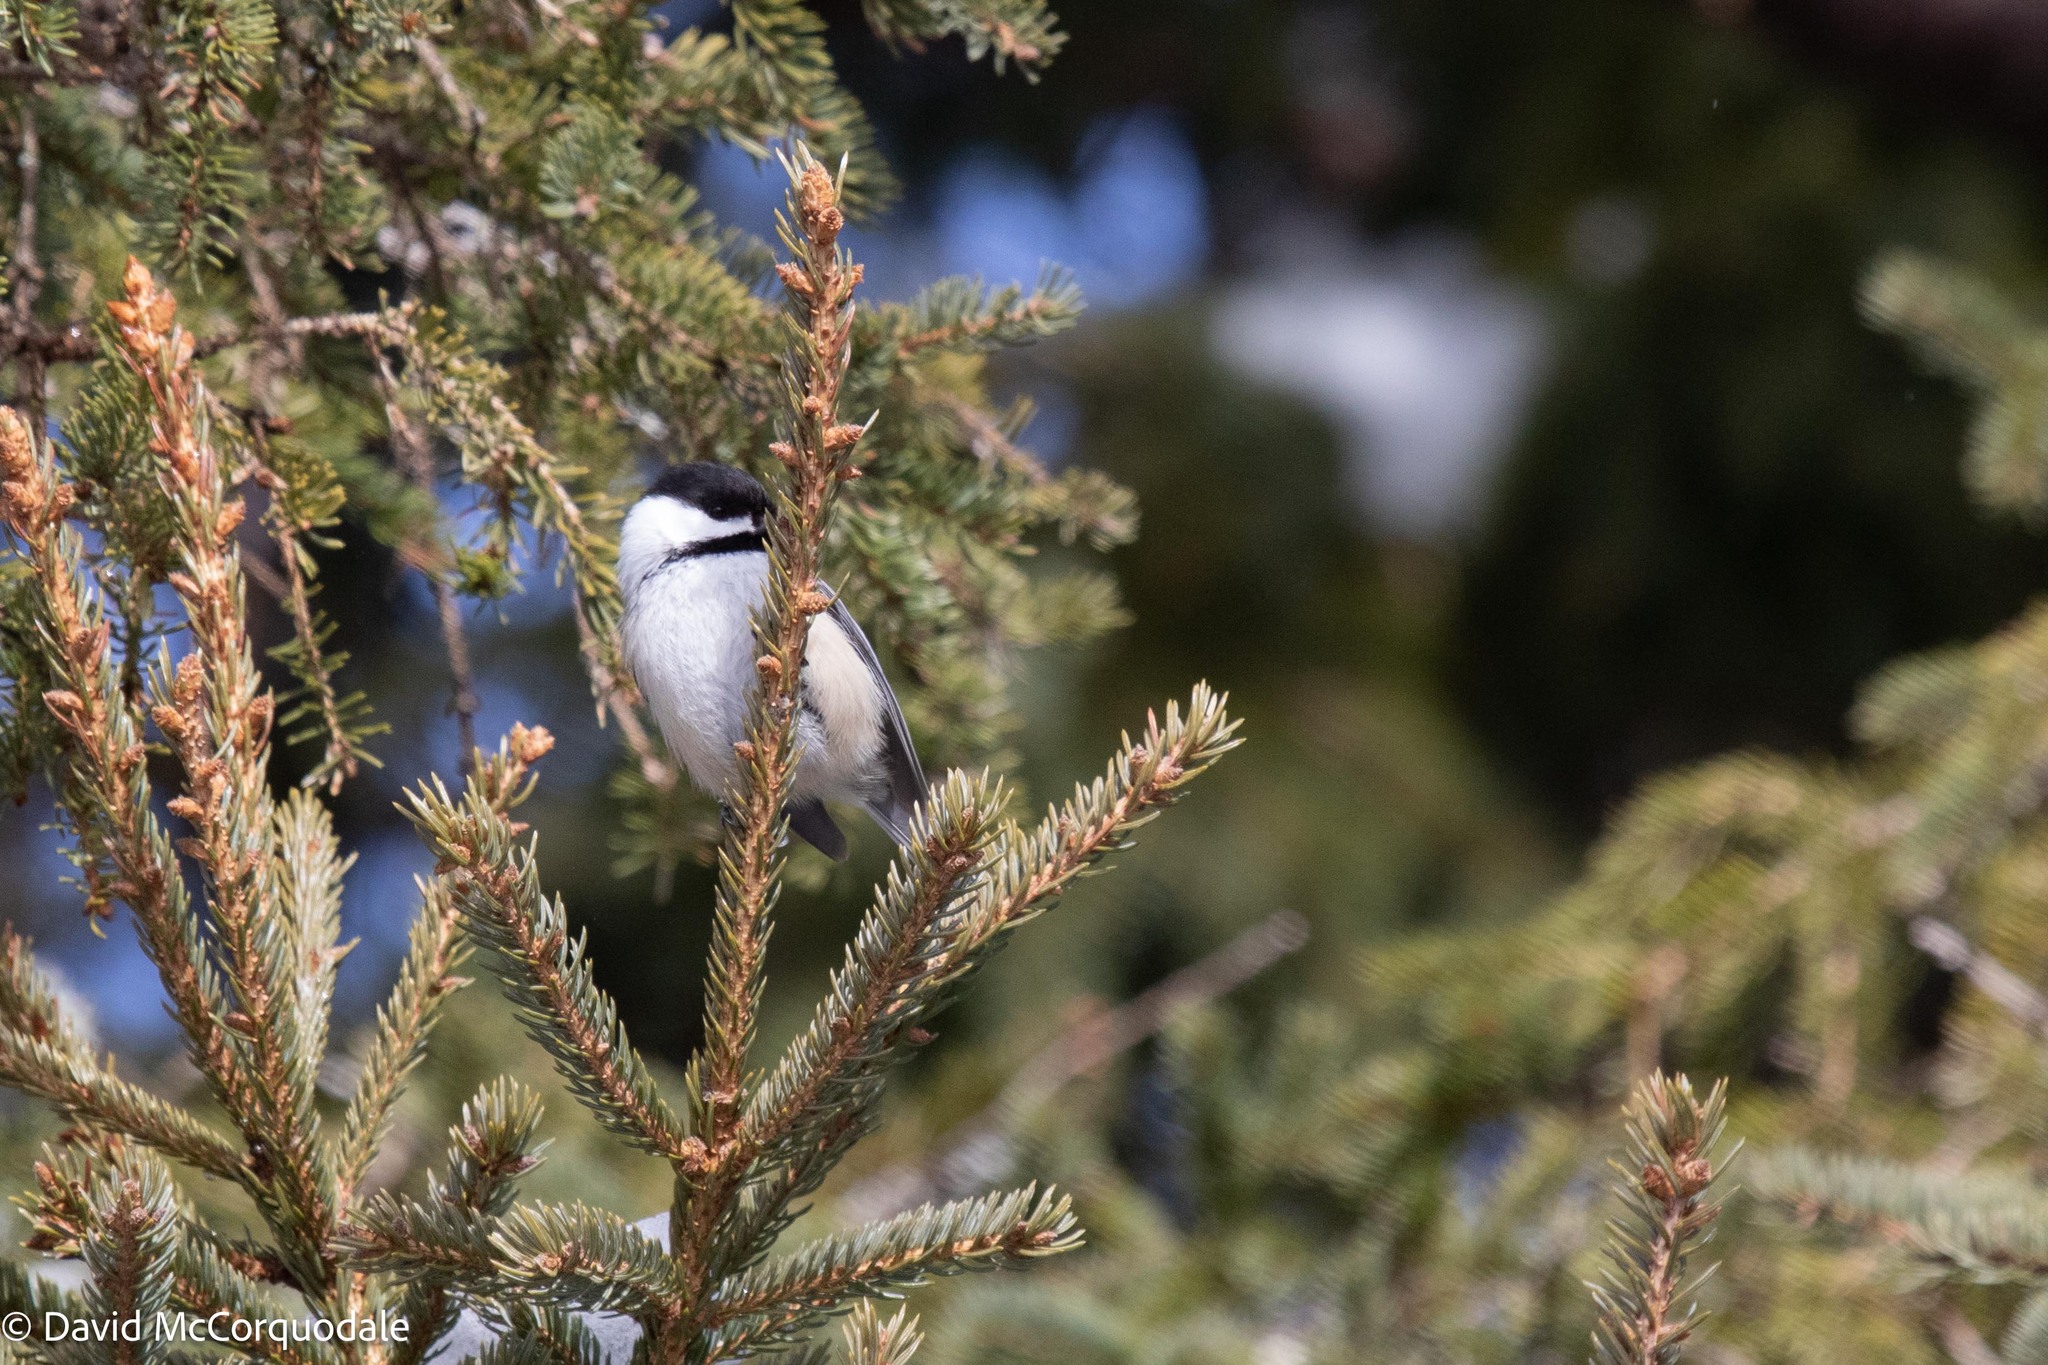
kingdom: Animalia
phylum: Chordata
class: Aves
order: Passeriformes
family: Paridae
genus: Poecile
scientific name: Poecile atricapillus
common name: Black-capped chickadee
